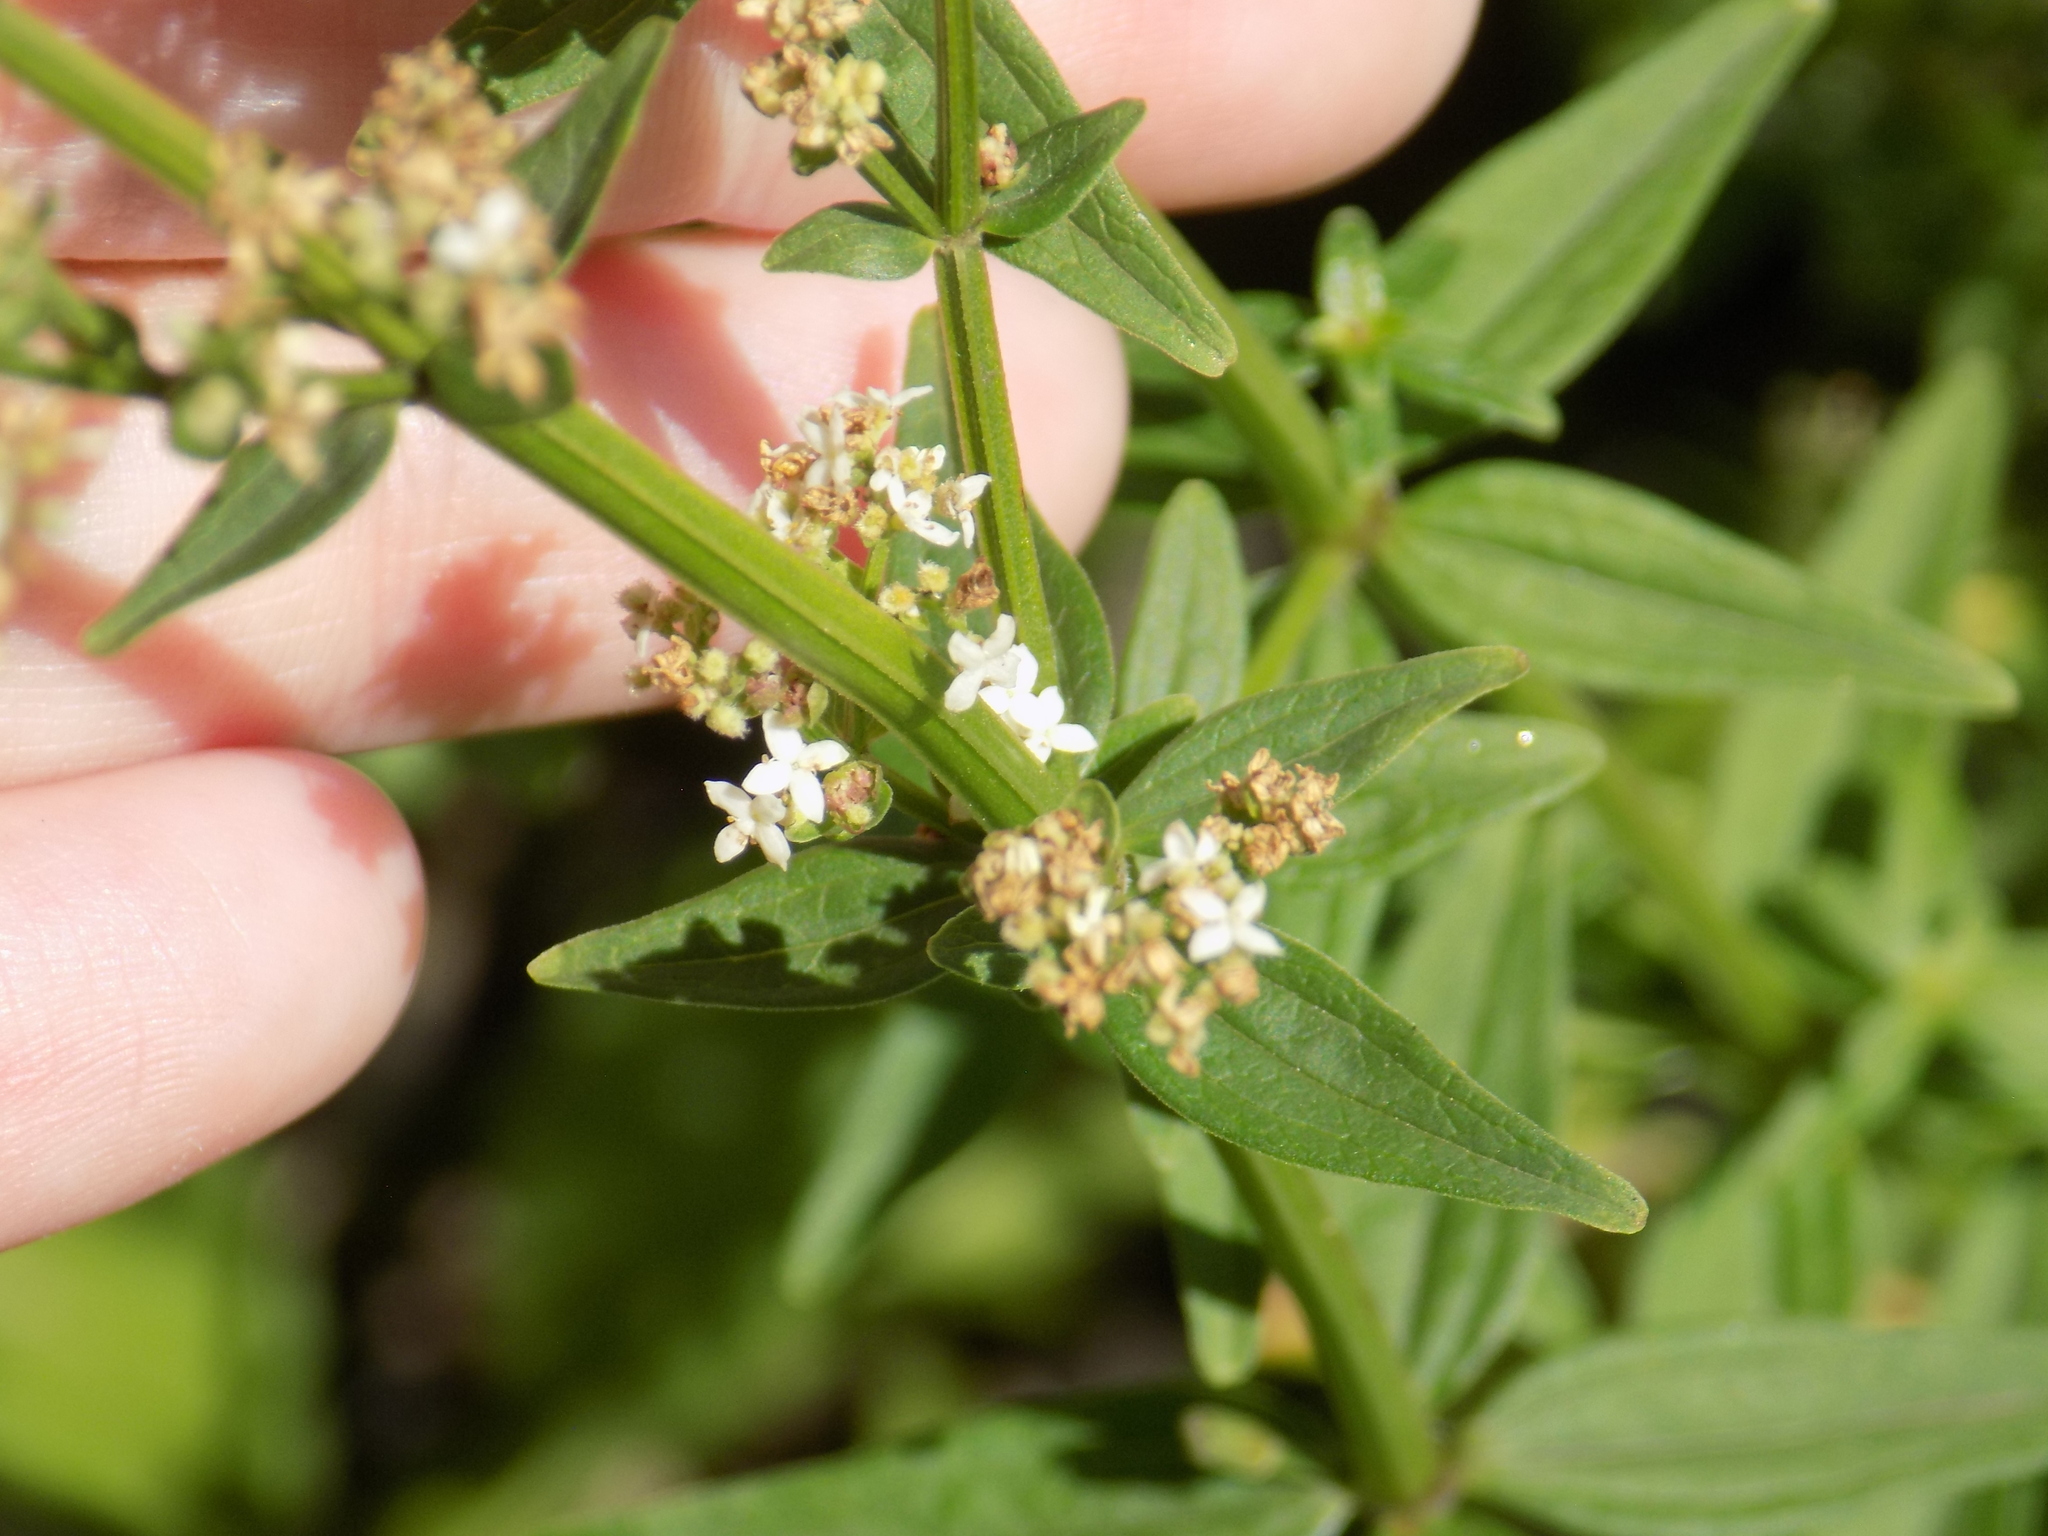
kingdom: Plantae
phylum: Tracheophyta
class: Magnoliopsida
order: Gentianales
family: Rubiaceae
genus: Galium
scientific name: Galium boreale
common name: Northern bedstraw
